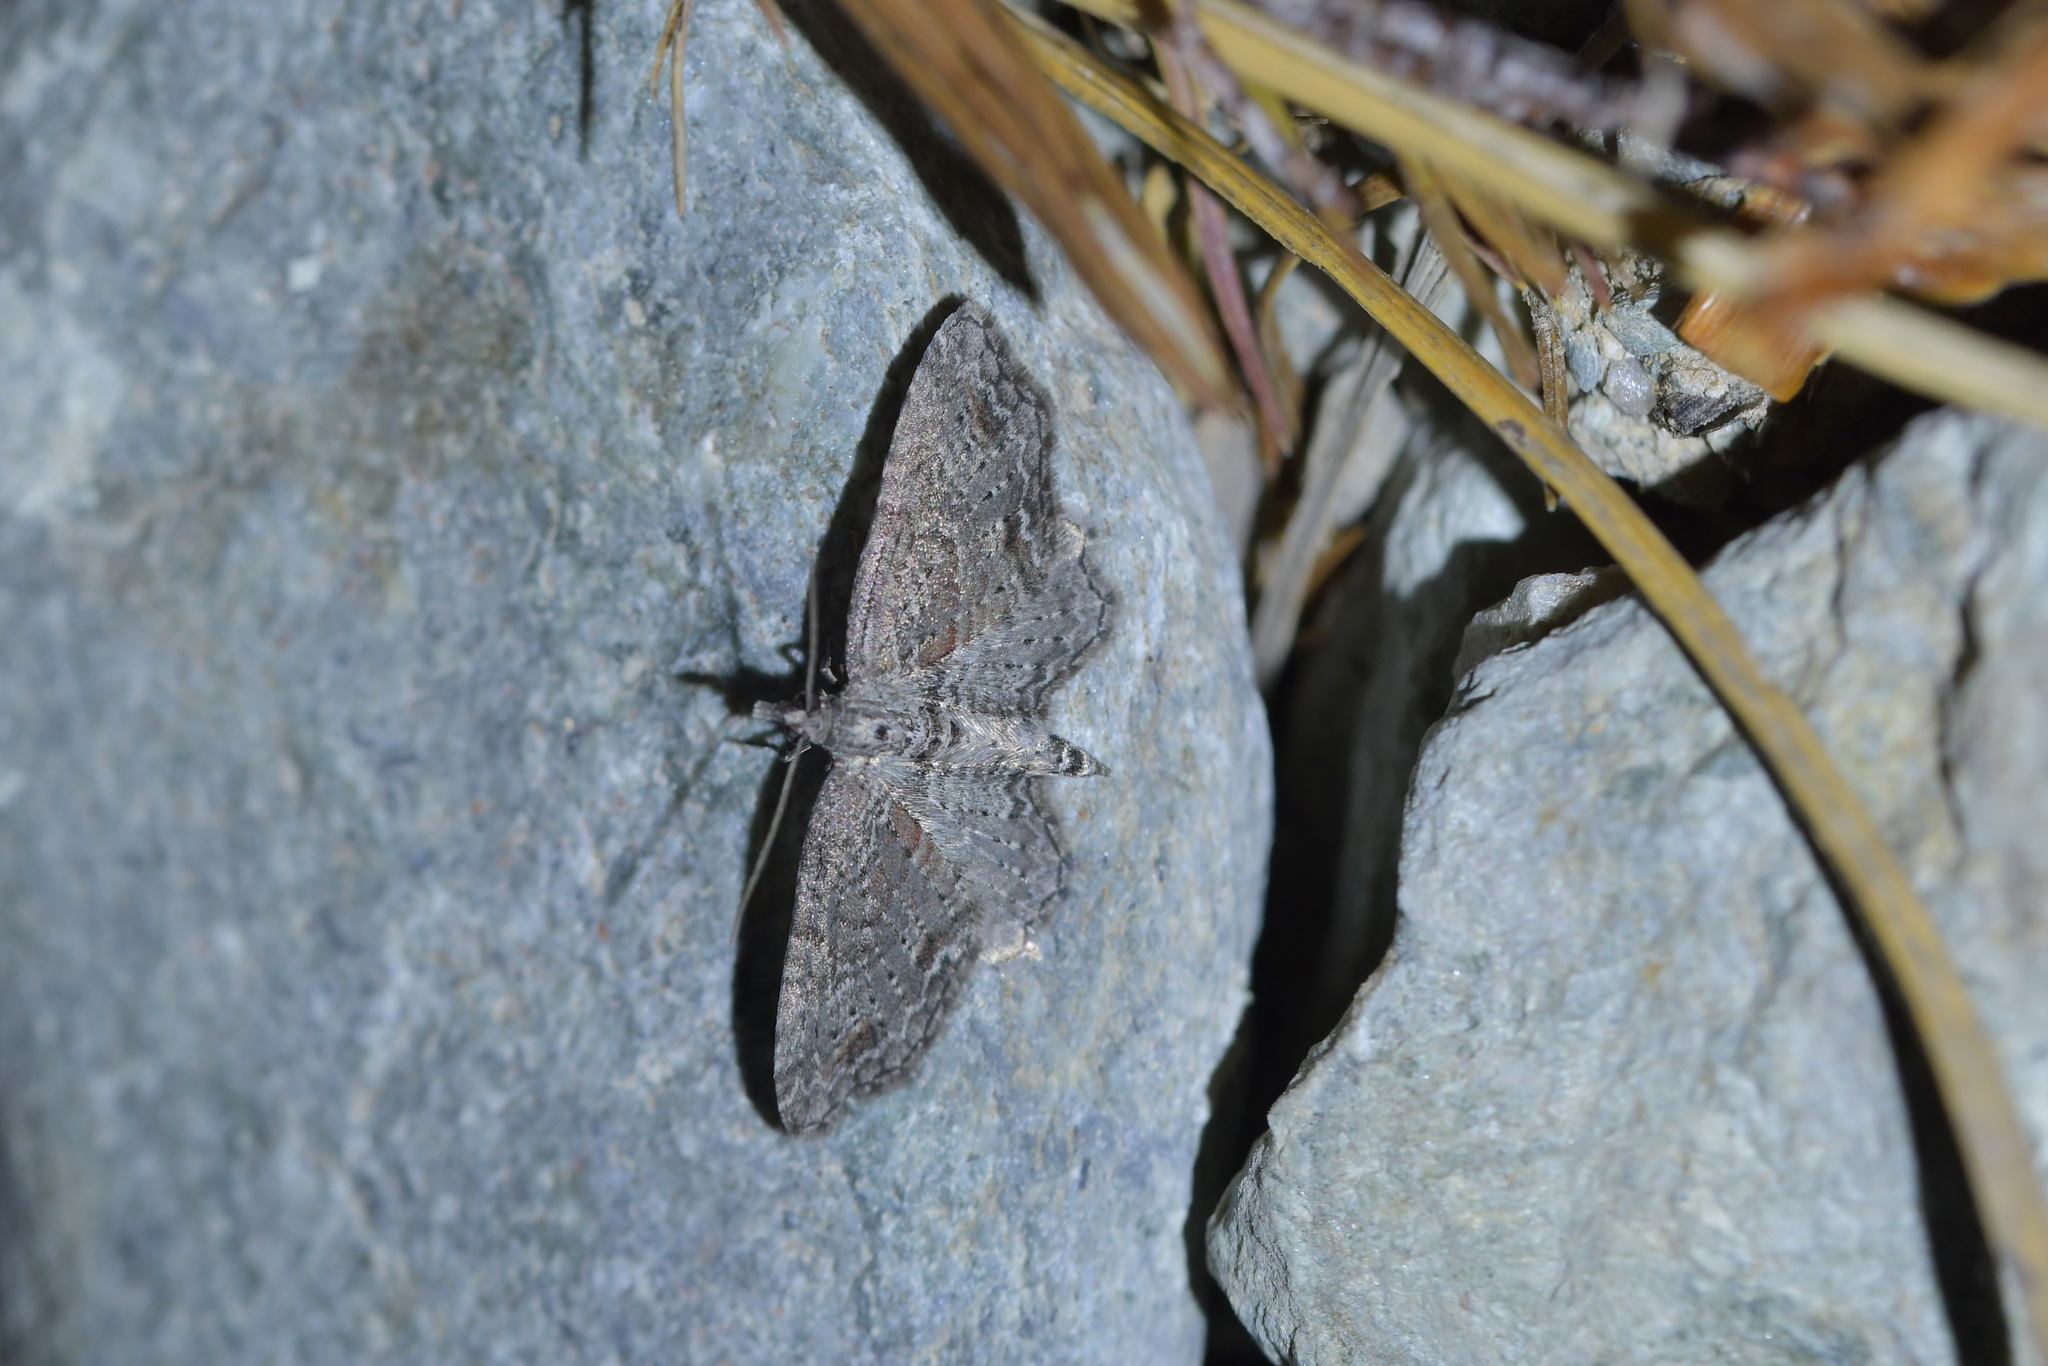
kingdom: Animalia
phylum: Arthropoda
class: Insecta
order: Lepidoptera
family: Geometridae
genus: Pasiphila
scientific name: Pasiphila humilis
